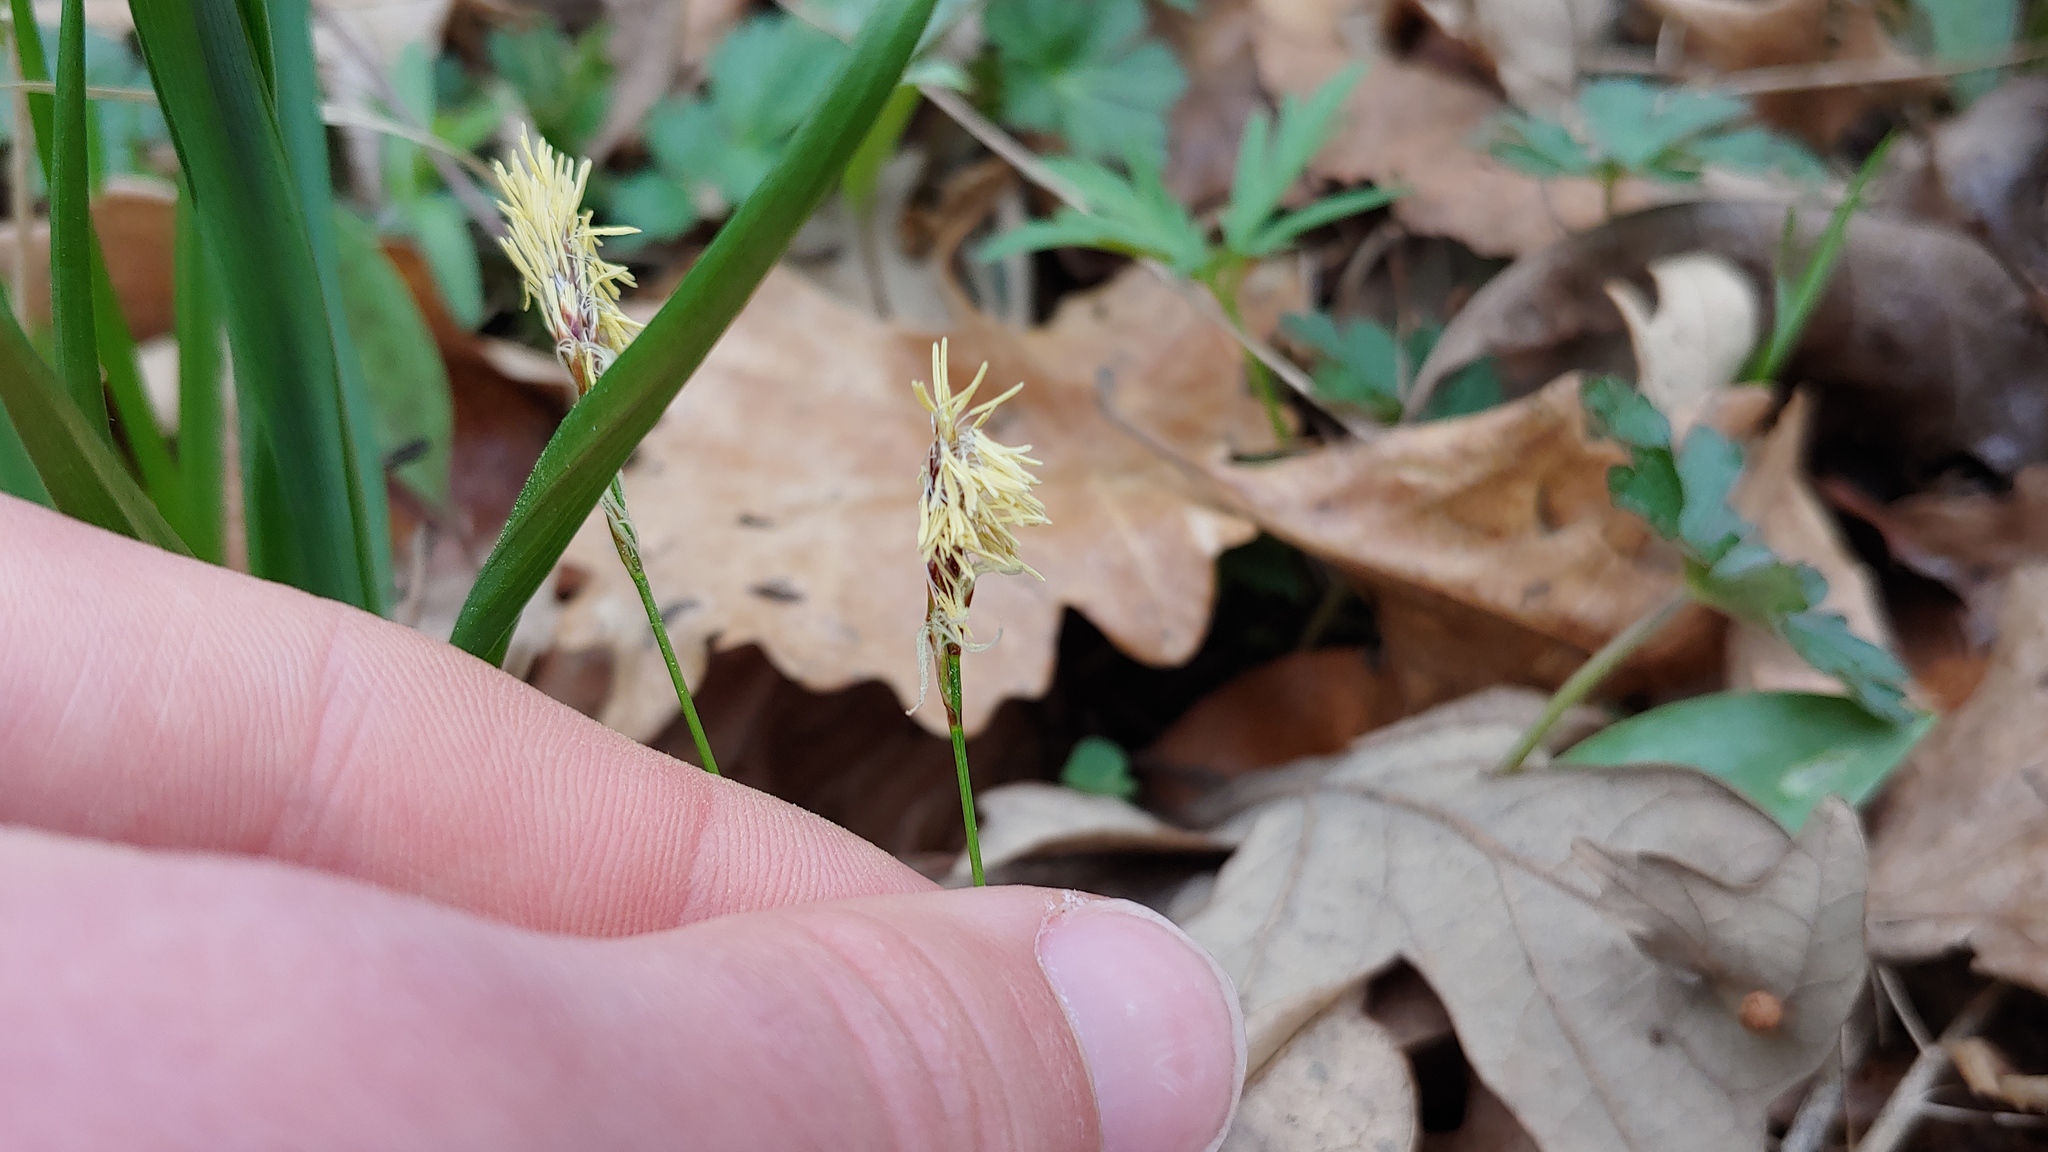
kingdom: Plantae
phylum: Tracheophyta
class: Liliopsida
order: Poales
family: Cyperaceae
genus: Carex
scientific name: Carex pensylvanica
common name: Common oak sedge
